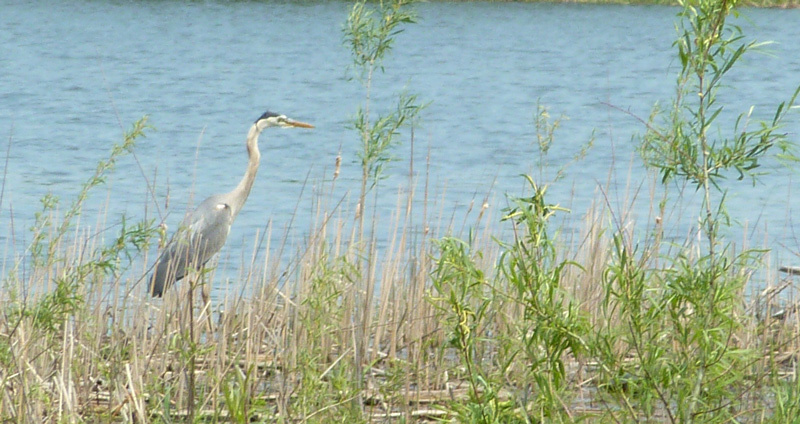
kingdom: Animalia
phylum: Chordata
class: Aves
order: Pelecaniformes
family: Ardeidae
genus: Ardea
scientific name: Ardea herodias
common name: Great blue heron
